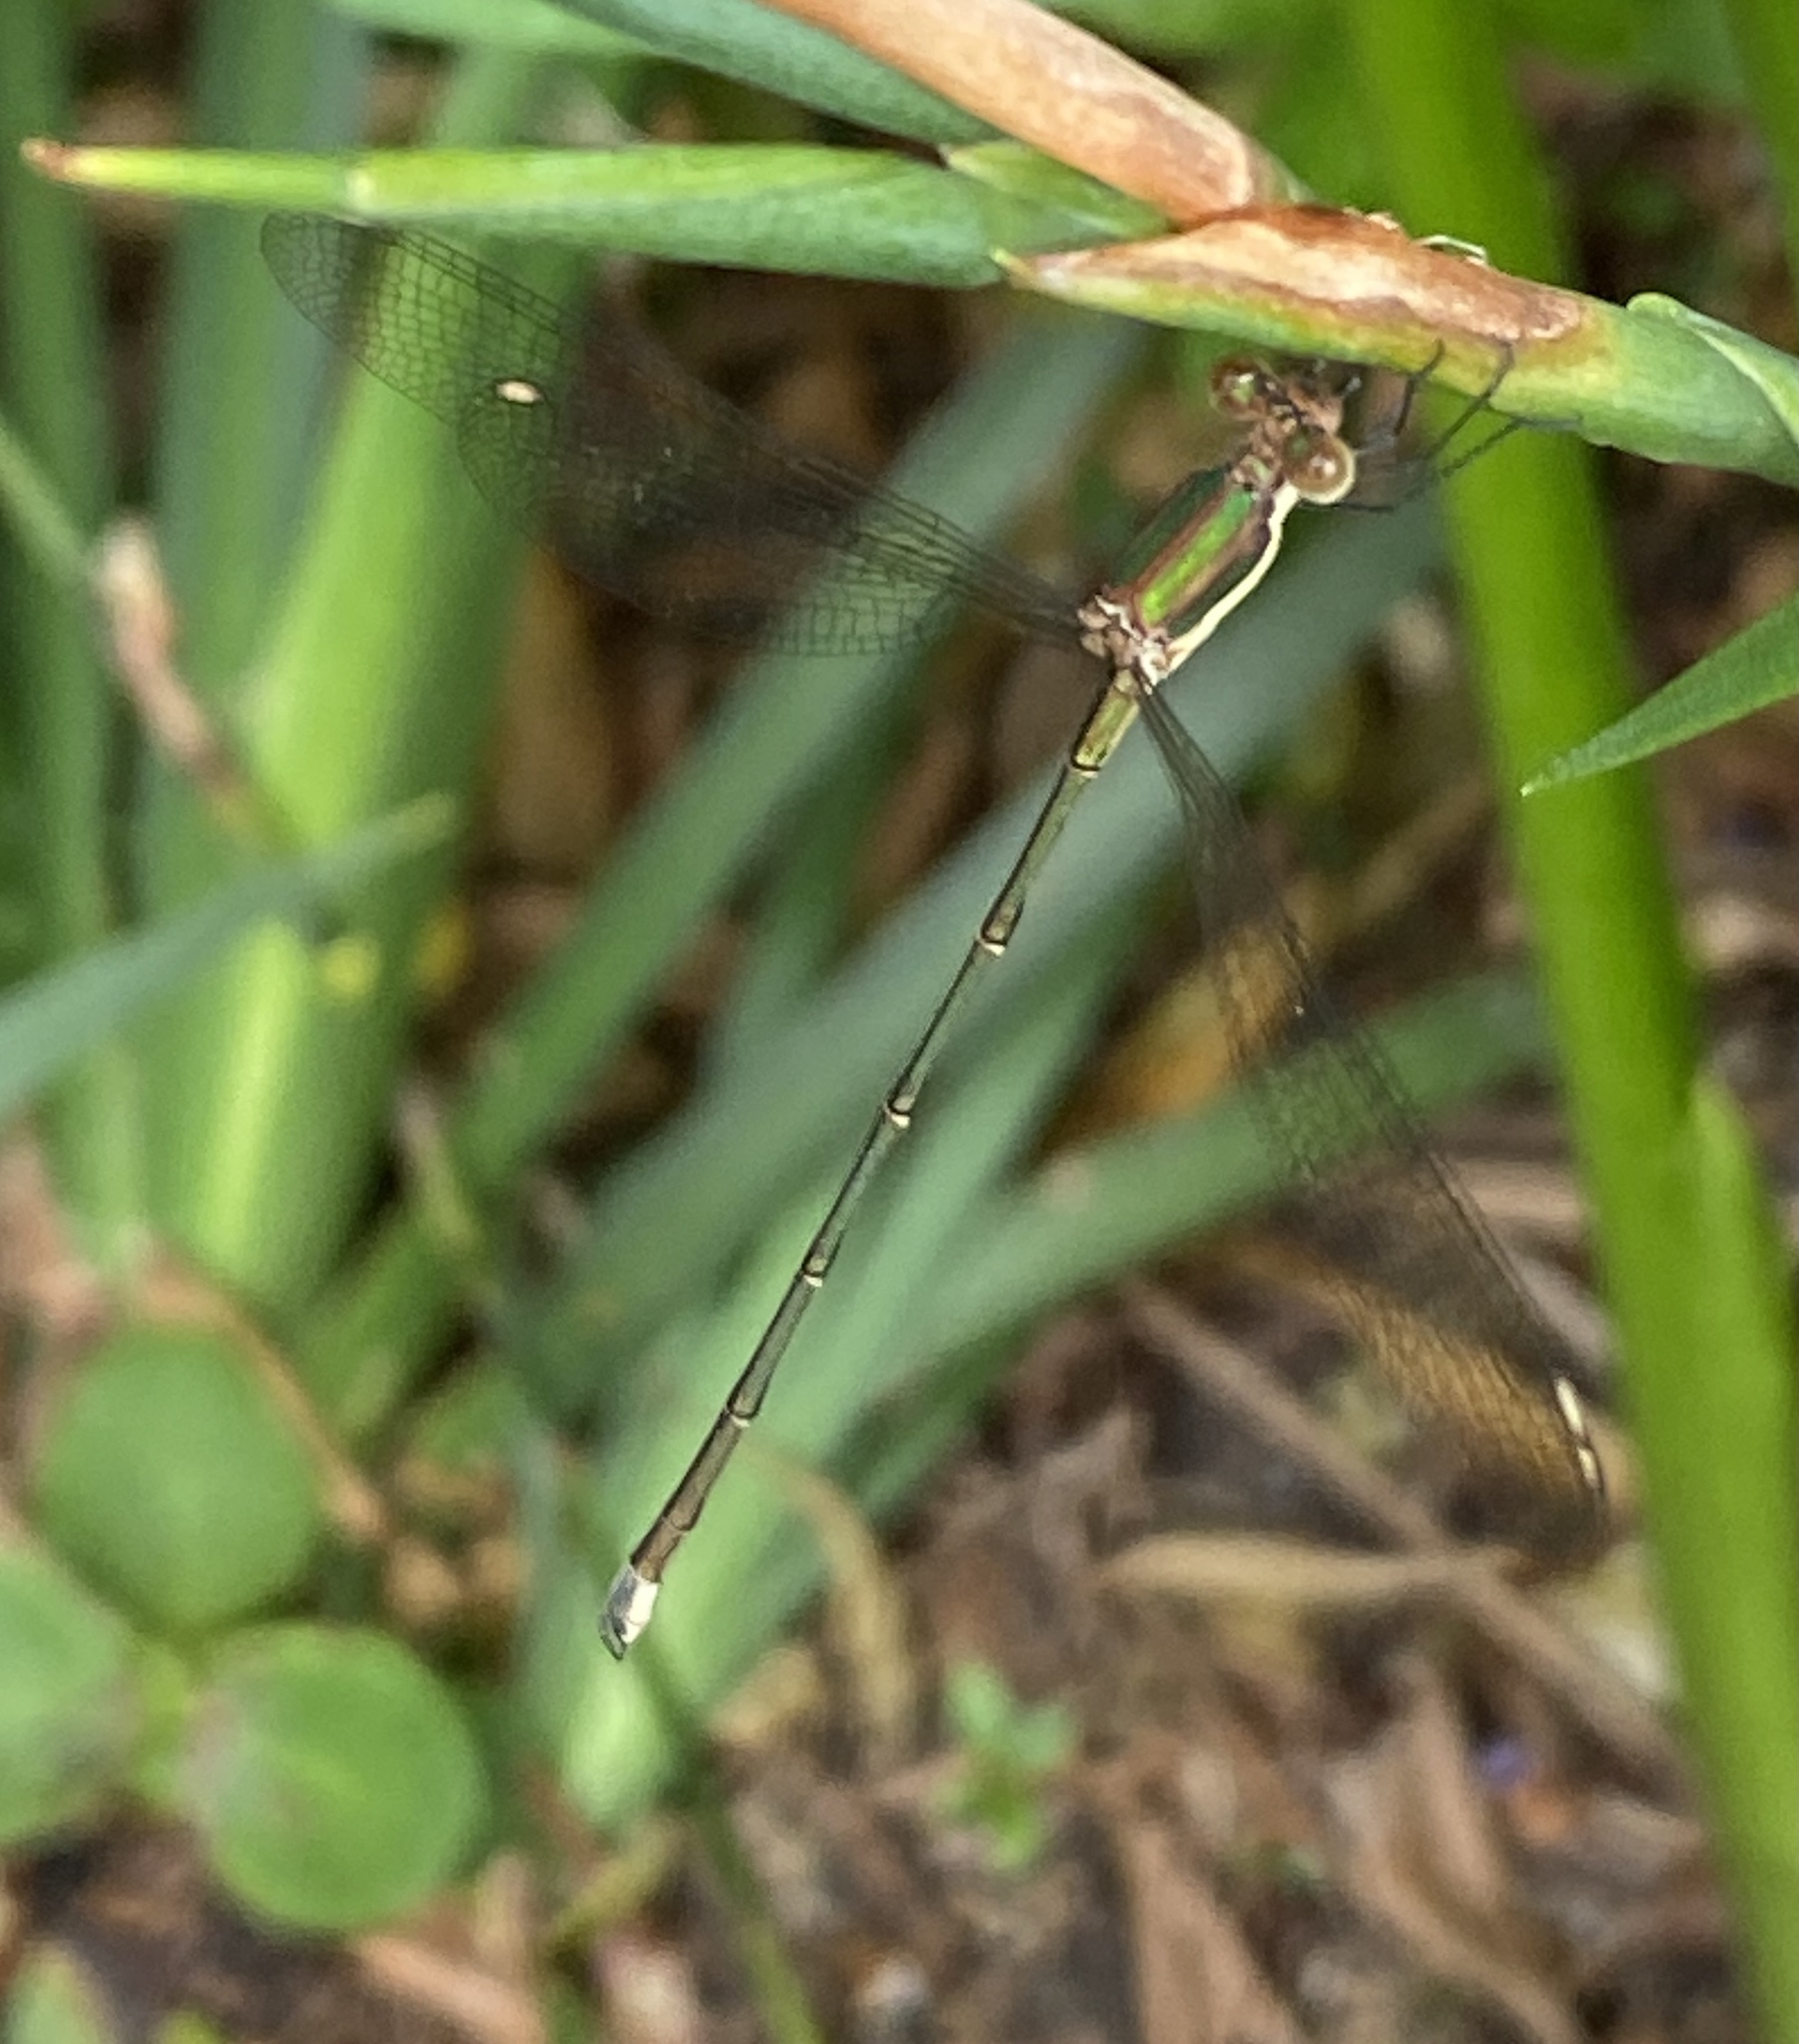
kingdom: Animalia
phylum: Arthropoda
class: Insecta
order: Odonata
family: Lestidae
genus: Lestes
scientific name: Lestes virgatus
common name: Smoky spreadwing
